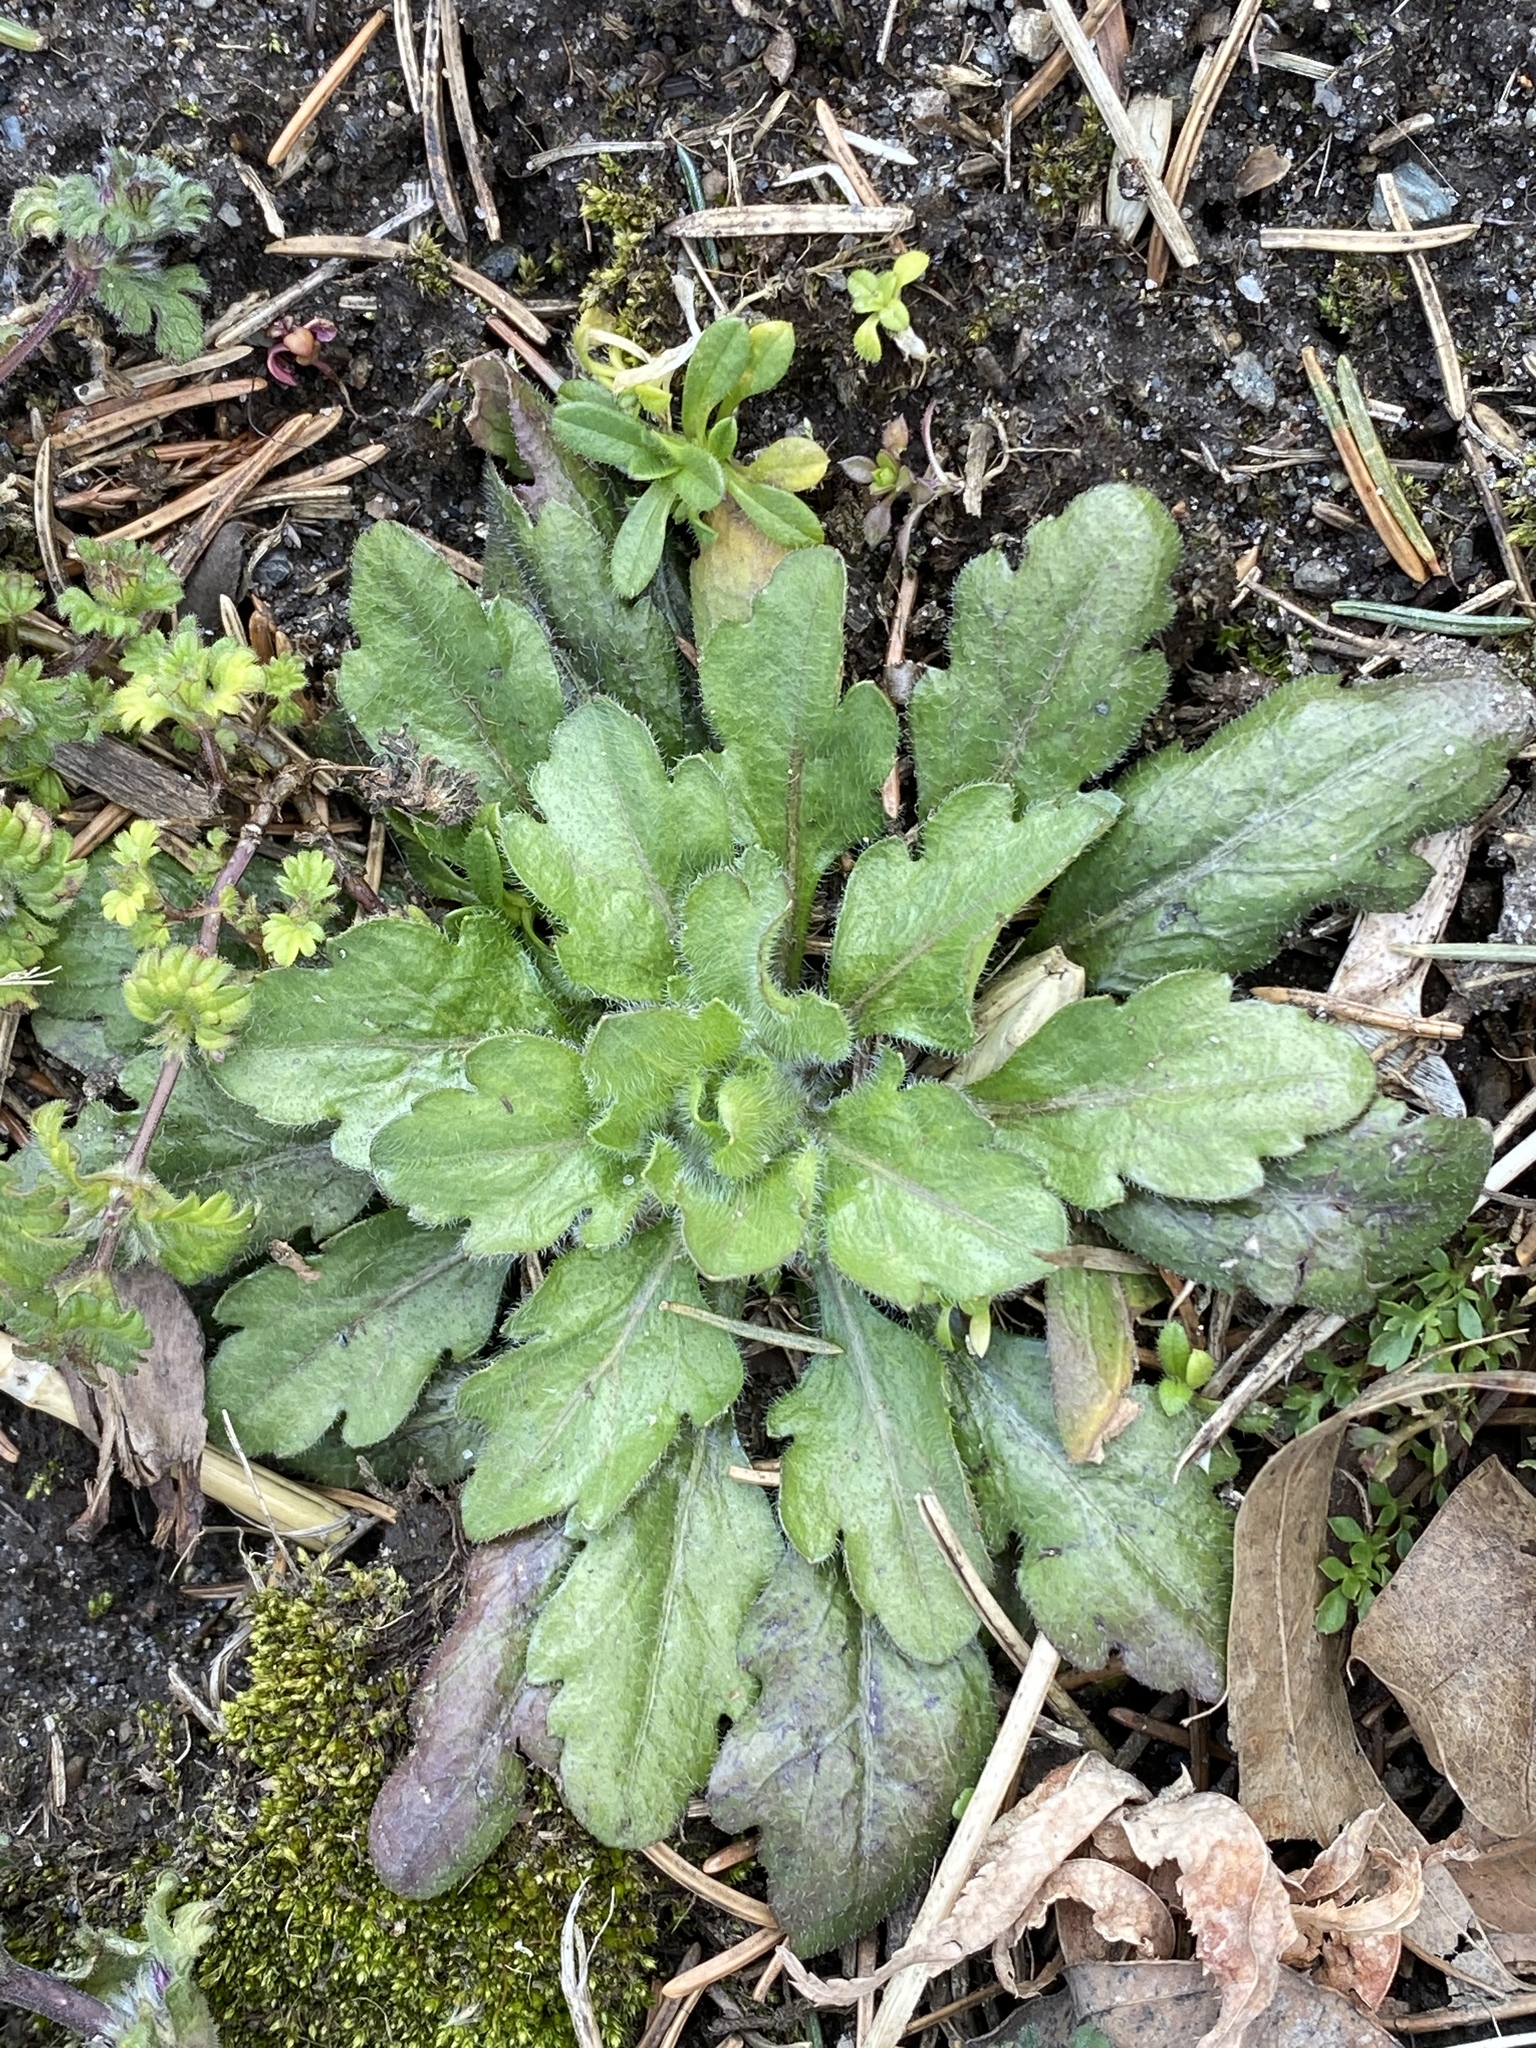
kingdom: Plantae
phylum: Tracheophyta
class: Magnoliopsida
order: Asterales
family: Asteraceae
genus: Erigeron
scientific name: Erigeron canadensis
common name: Canadian fleabane
